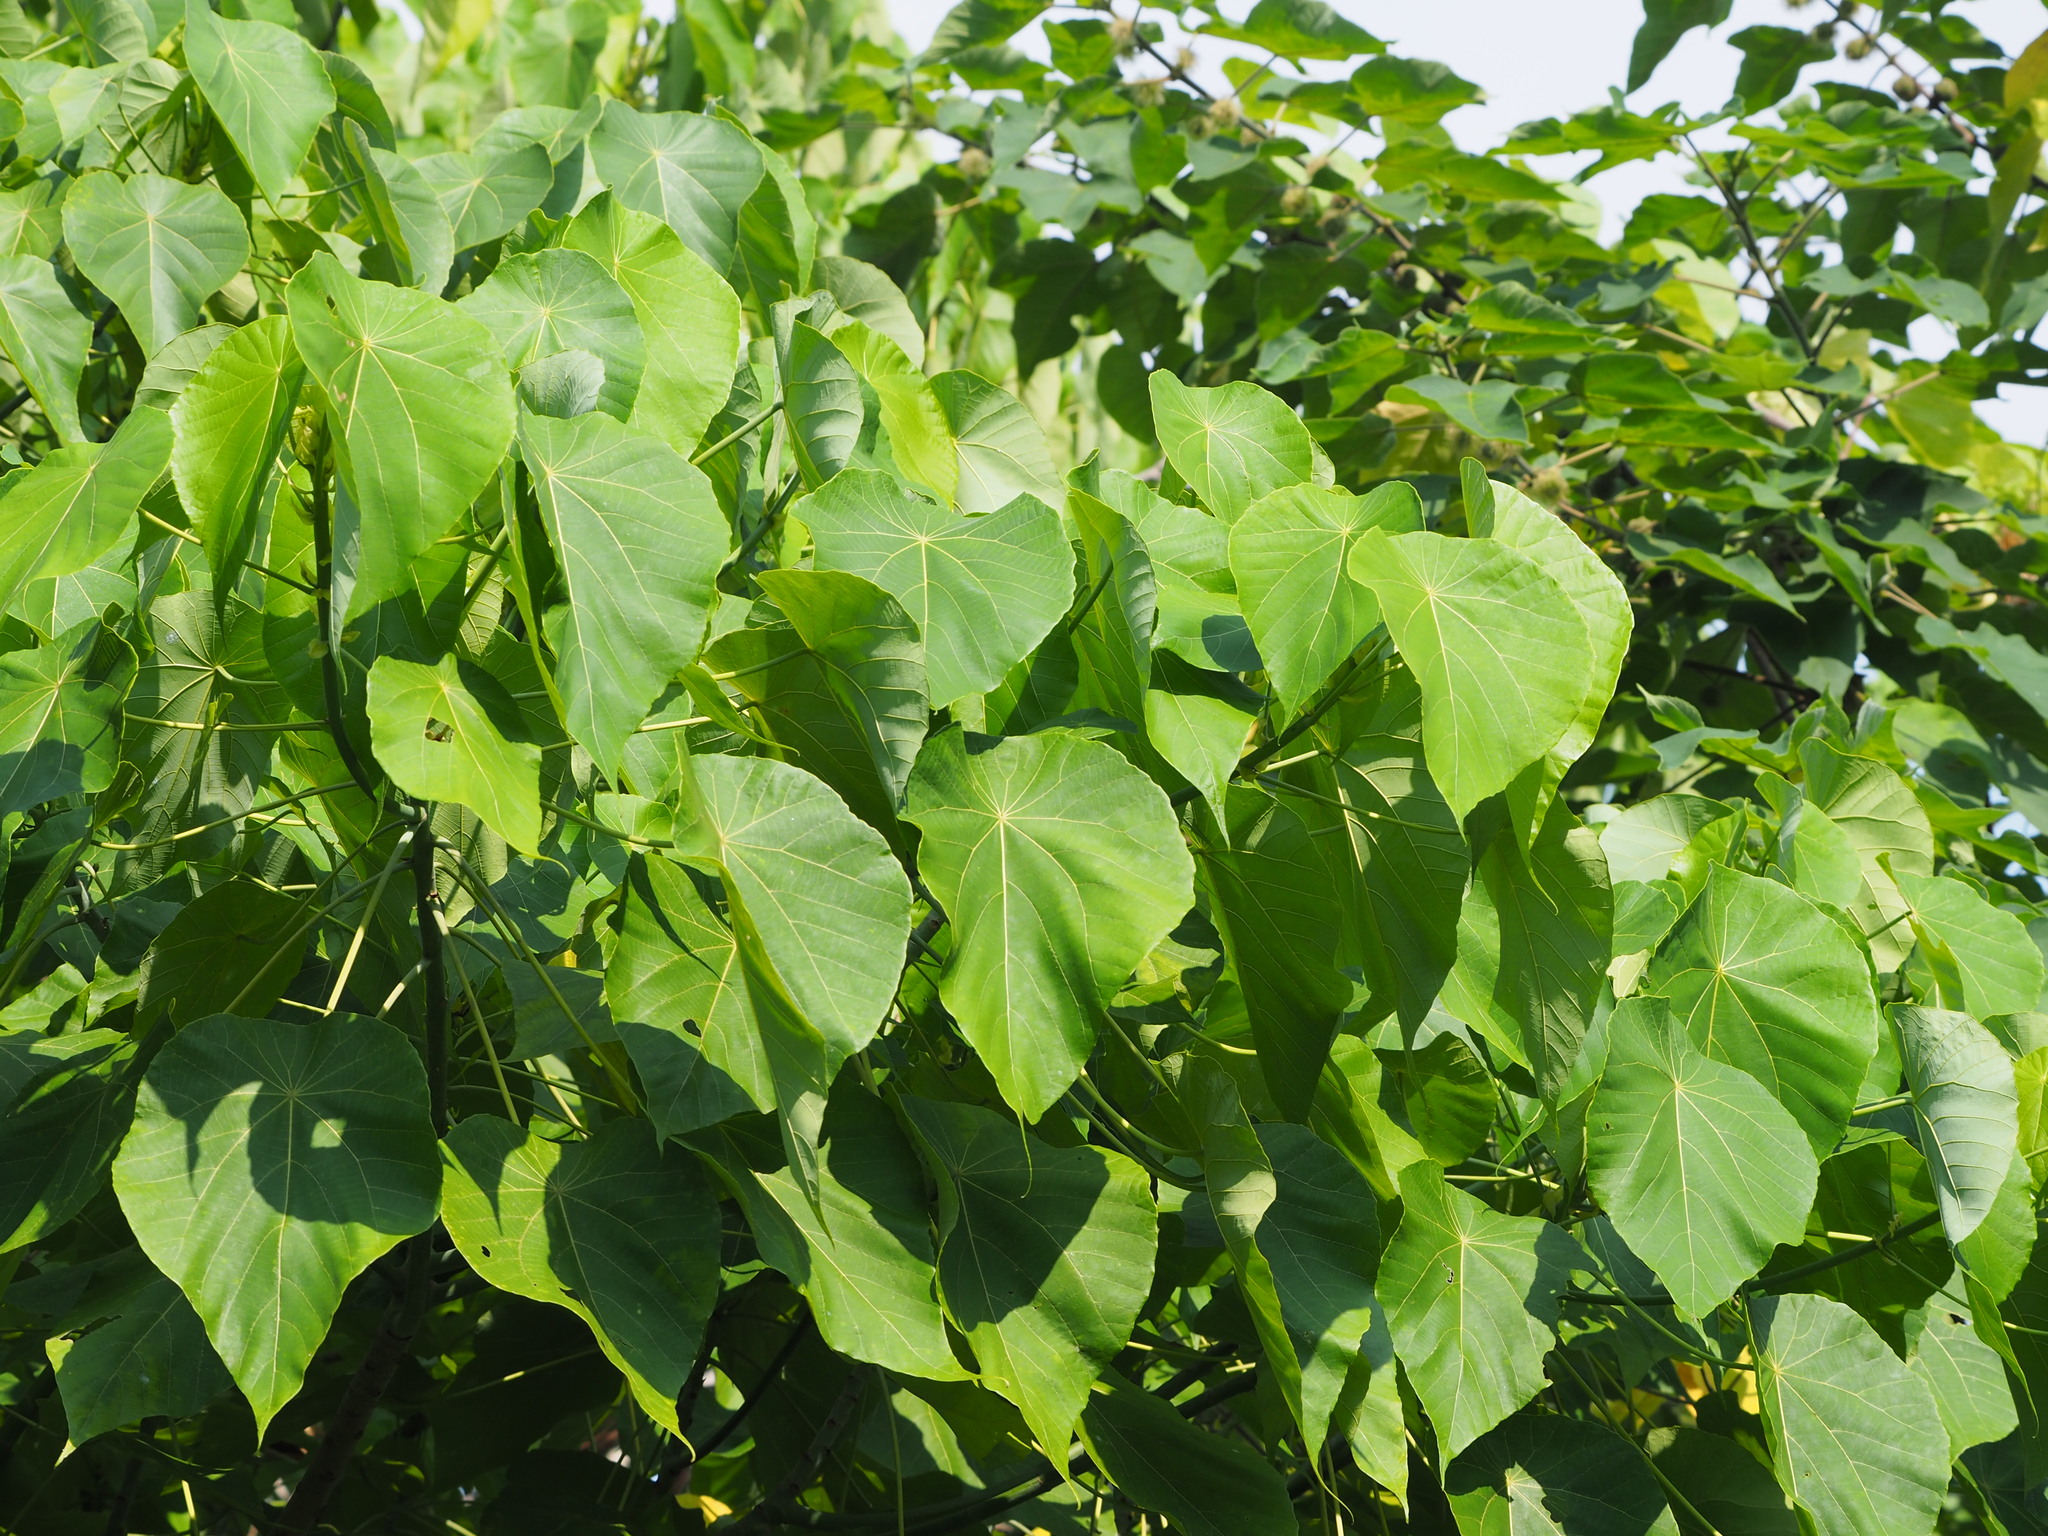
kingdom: Plantae
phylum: Tracheophyta
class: Magnoliopsida
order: Malpighiales
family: Euphorbiaceae
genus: Macaranga
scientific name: Macaranga tanarius
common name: Parasol leaf tree
